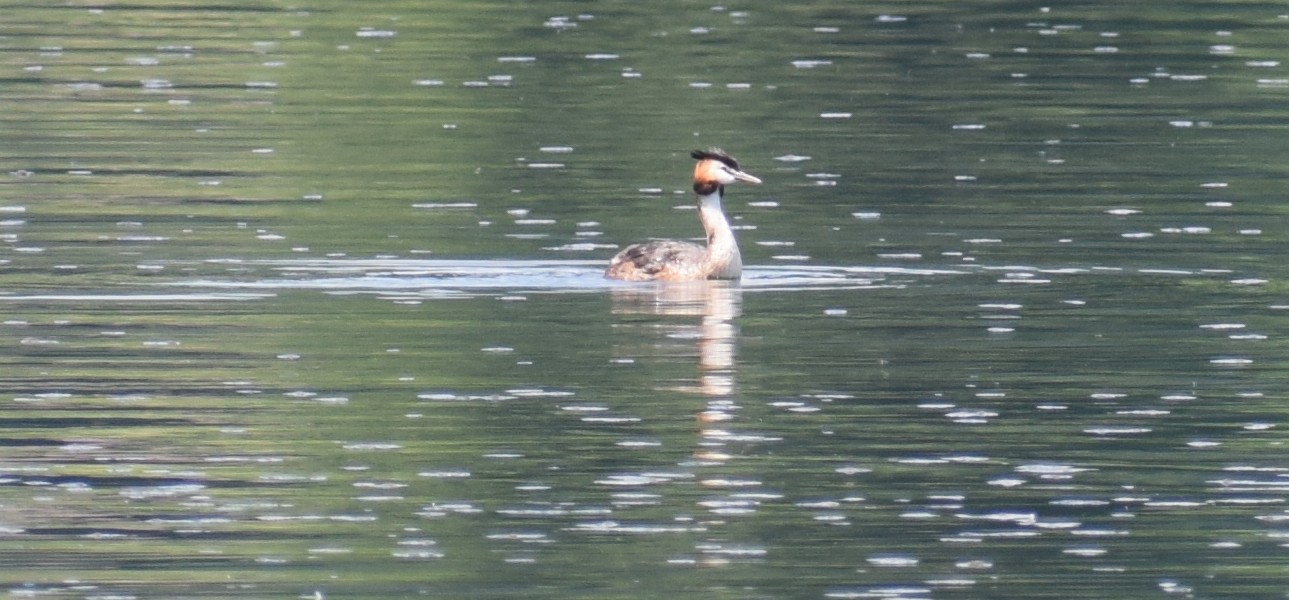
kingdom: Animalia
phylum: Chordata
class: Aves
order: Podicipediformes
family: Podicipedidae
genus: Podiceps
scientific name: Podiceps cristatus
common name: Great crested grebe
